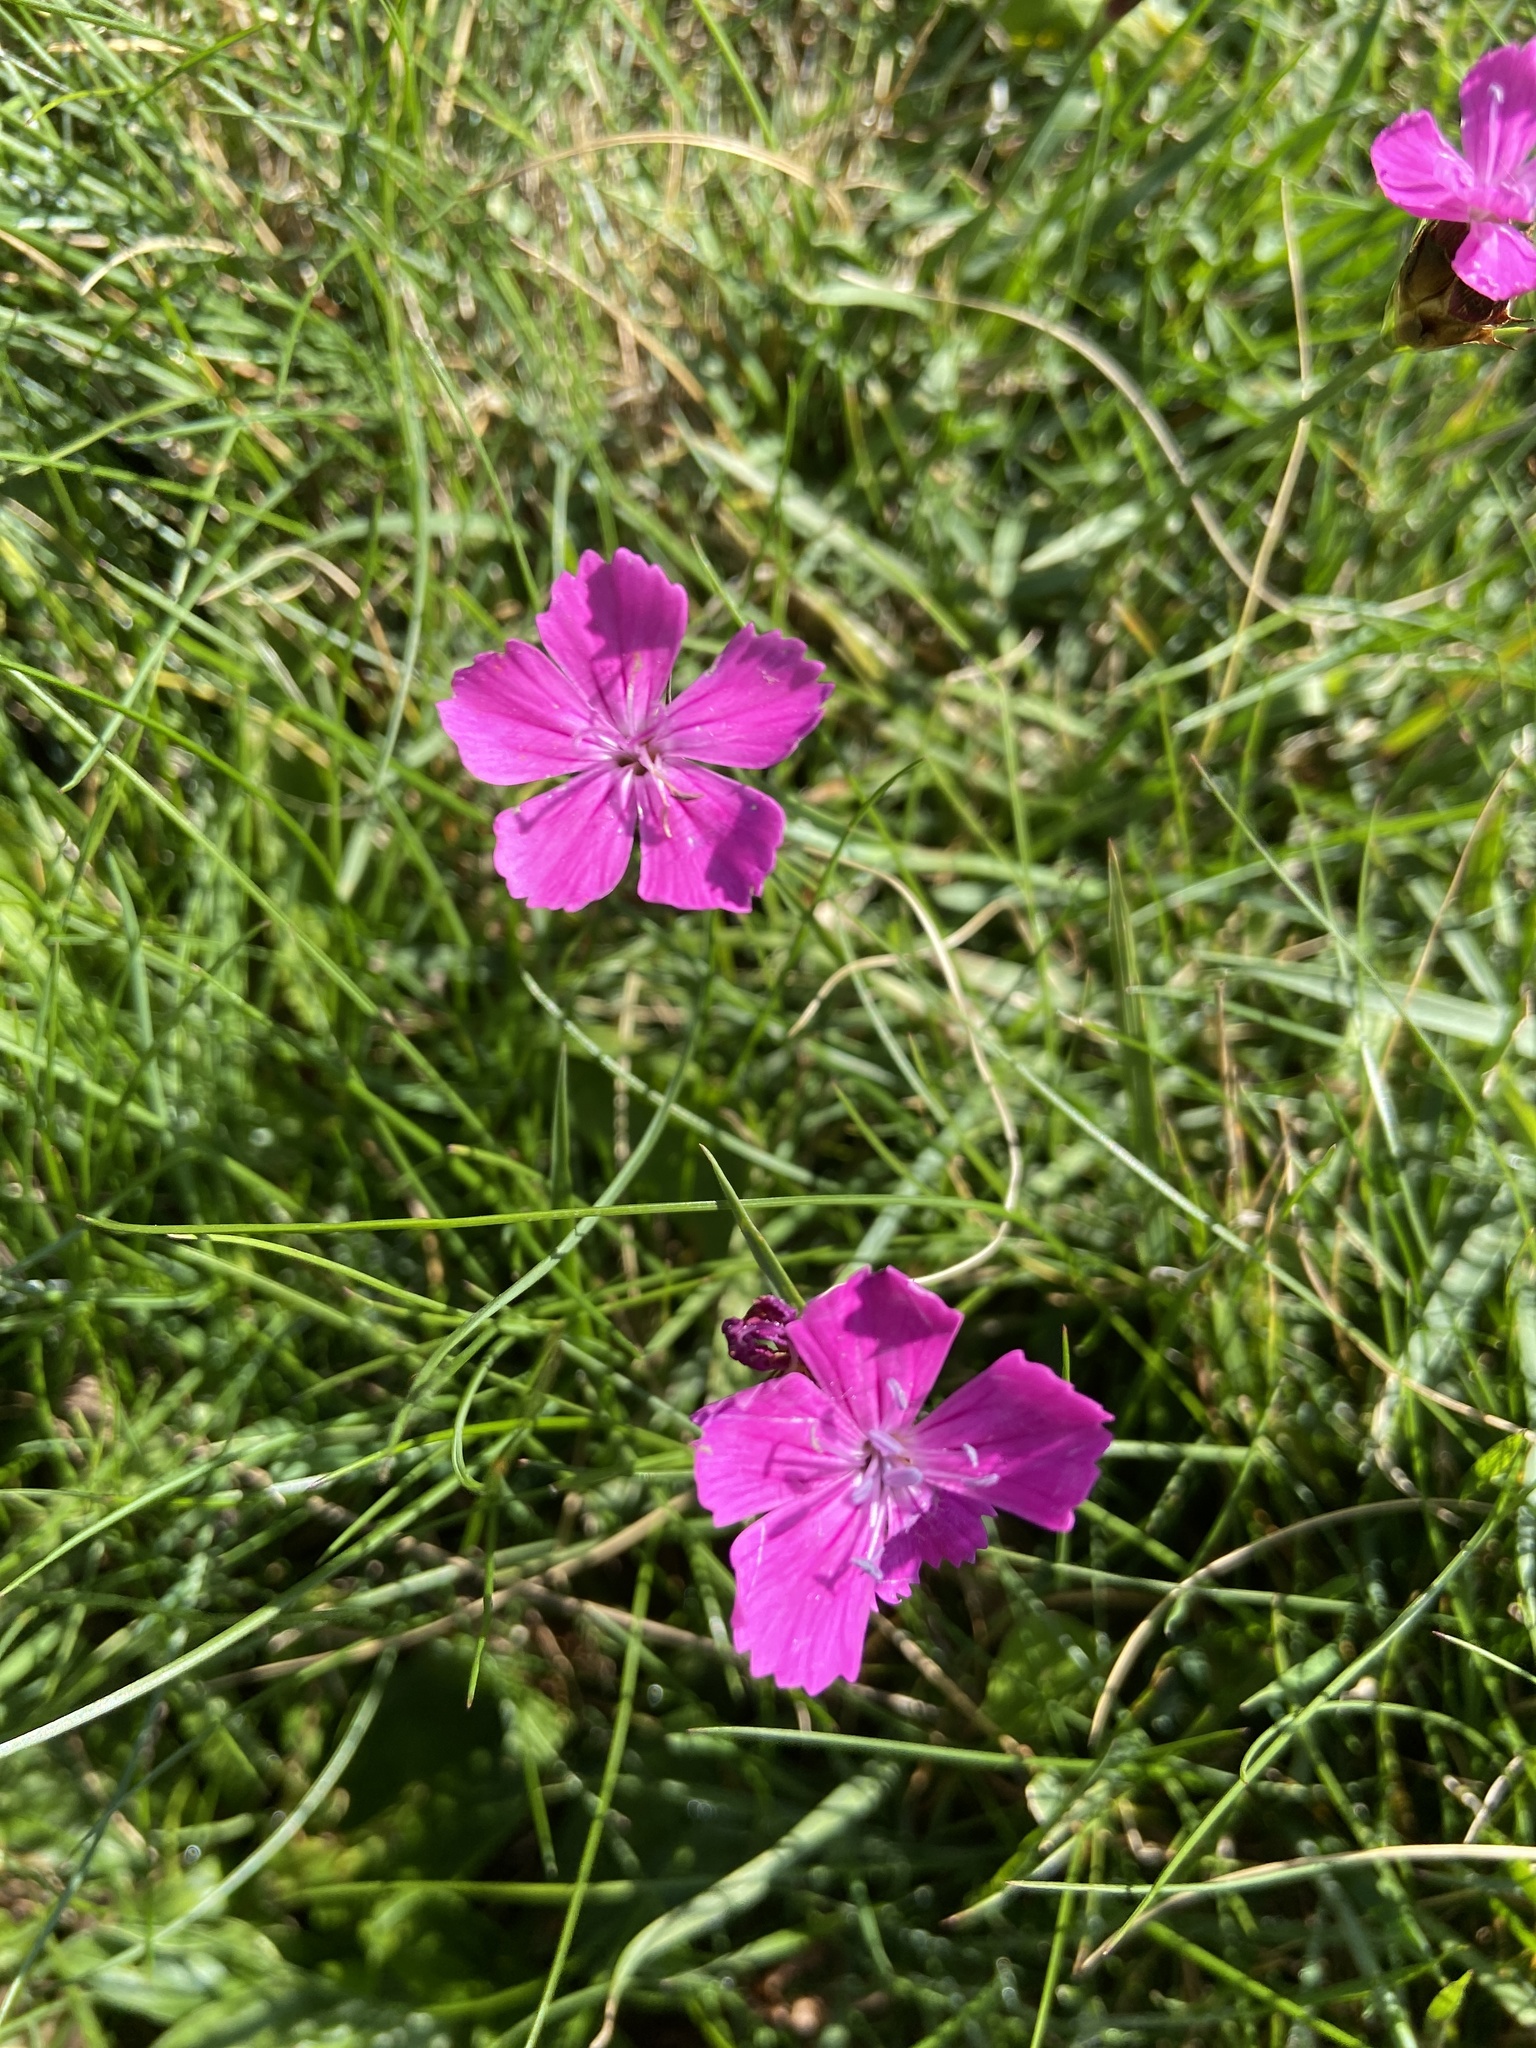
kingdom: Plantae
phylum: Tracheophyta
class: Magnoliopsida
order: Caryophyllales
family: Caryophyllaceae
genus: Dianthus
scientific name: Dianthus carthusianorum
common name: Carthusian pink
